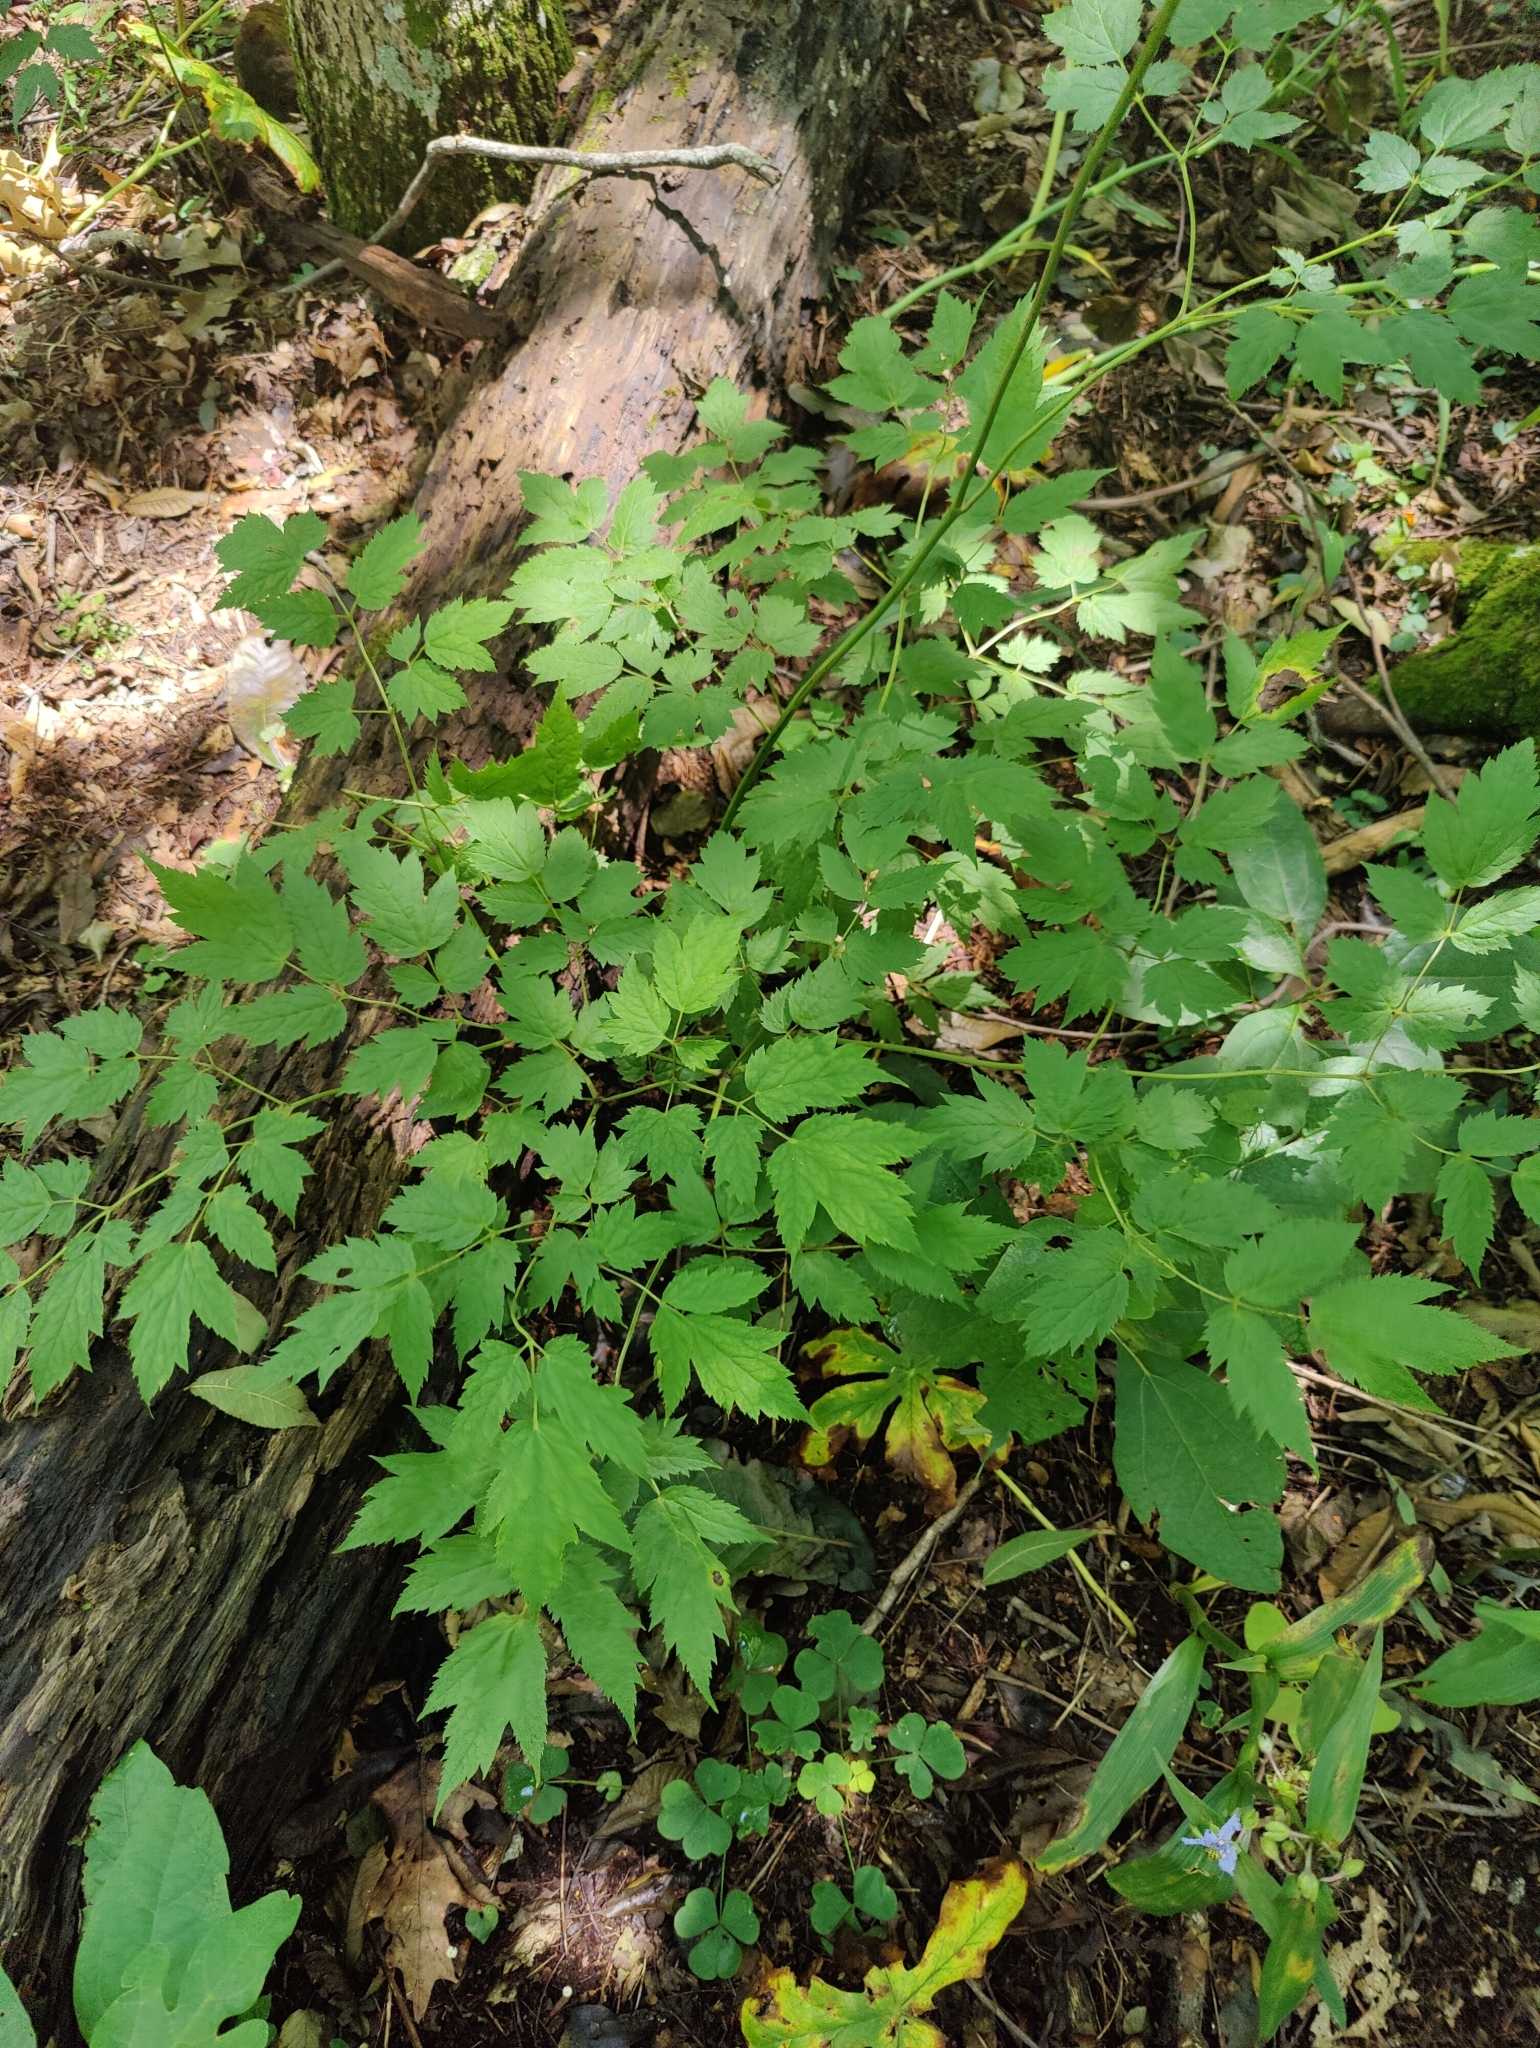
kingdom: Plantae
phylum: Tracheophyta
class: Magnoliopsida
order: Ranunculales
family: Ranunculaceae
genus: Actaea
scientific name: Actaea racemosa
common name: Black cohosh
